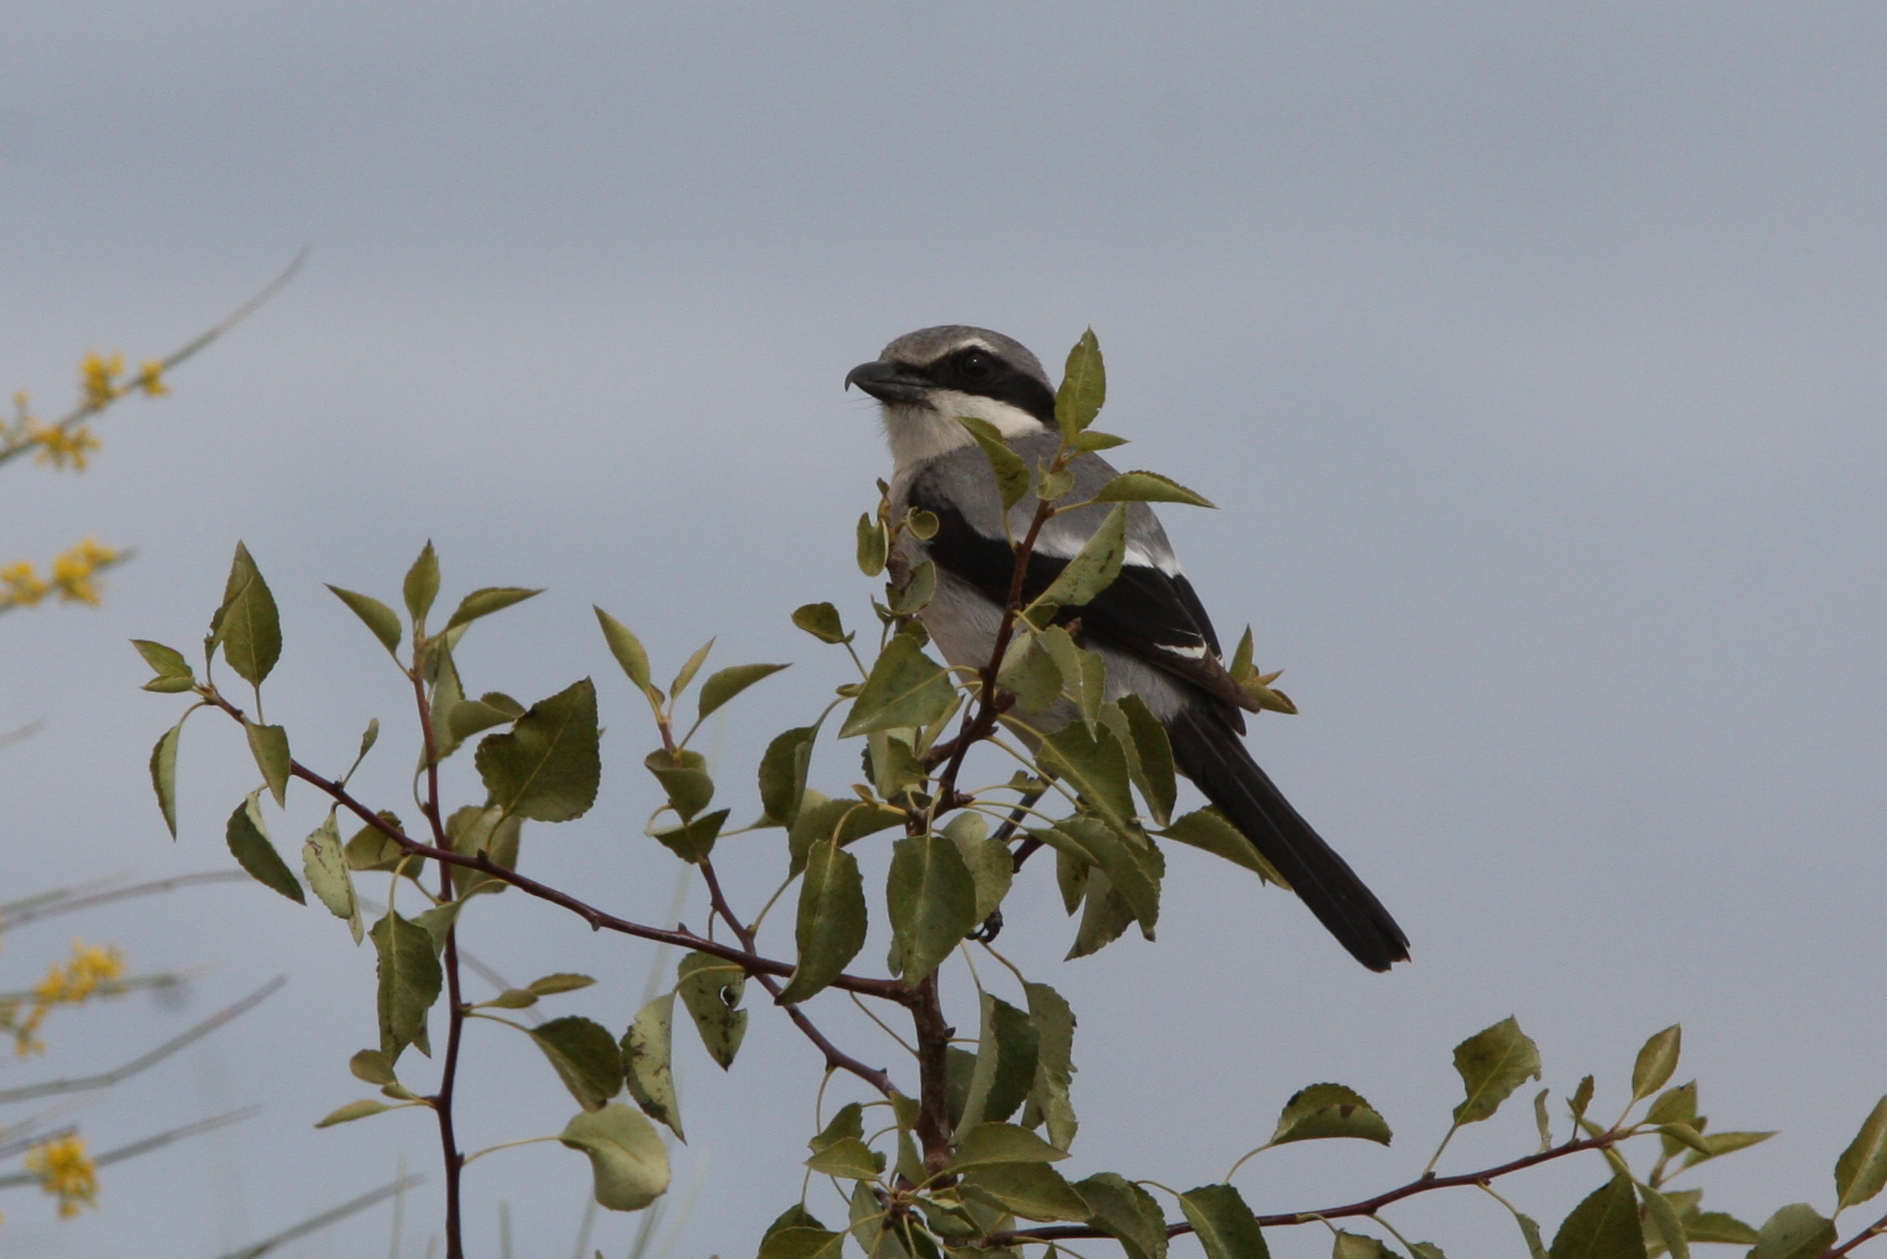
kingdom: Animalia
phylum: Chordata
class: Aves
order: Passeriformes
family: Laniidae
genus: Lanius
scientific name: Lanius meridionalis
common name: Iberian grey shrike
